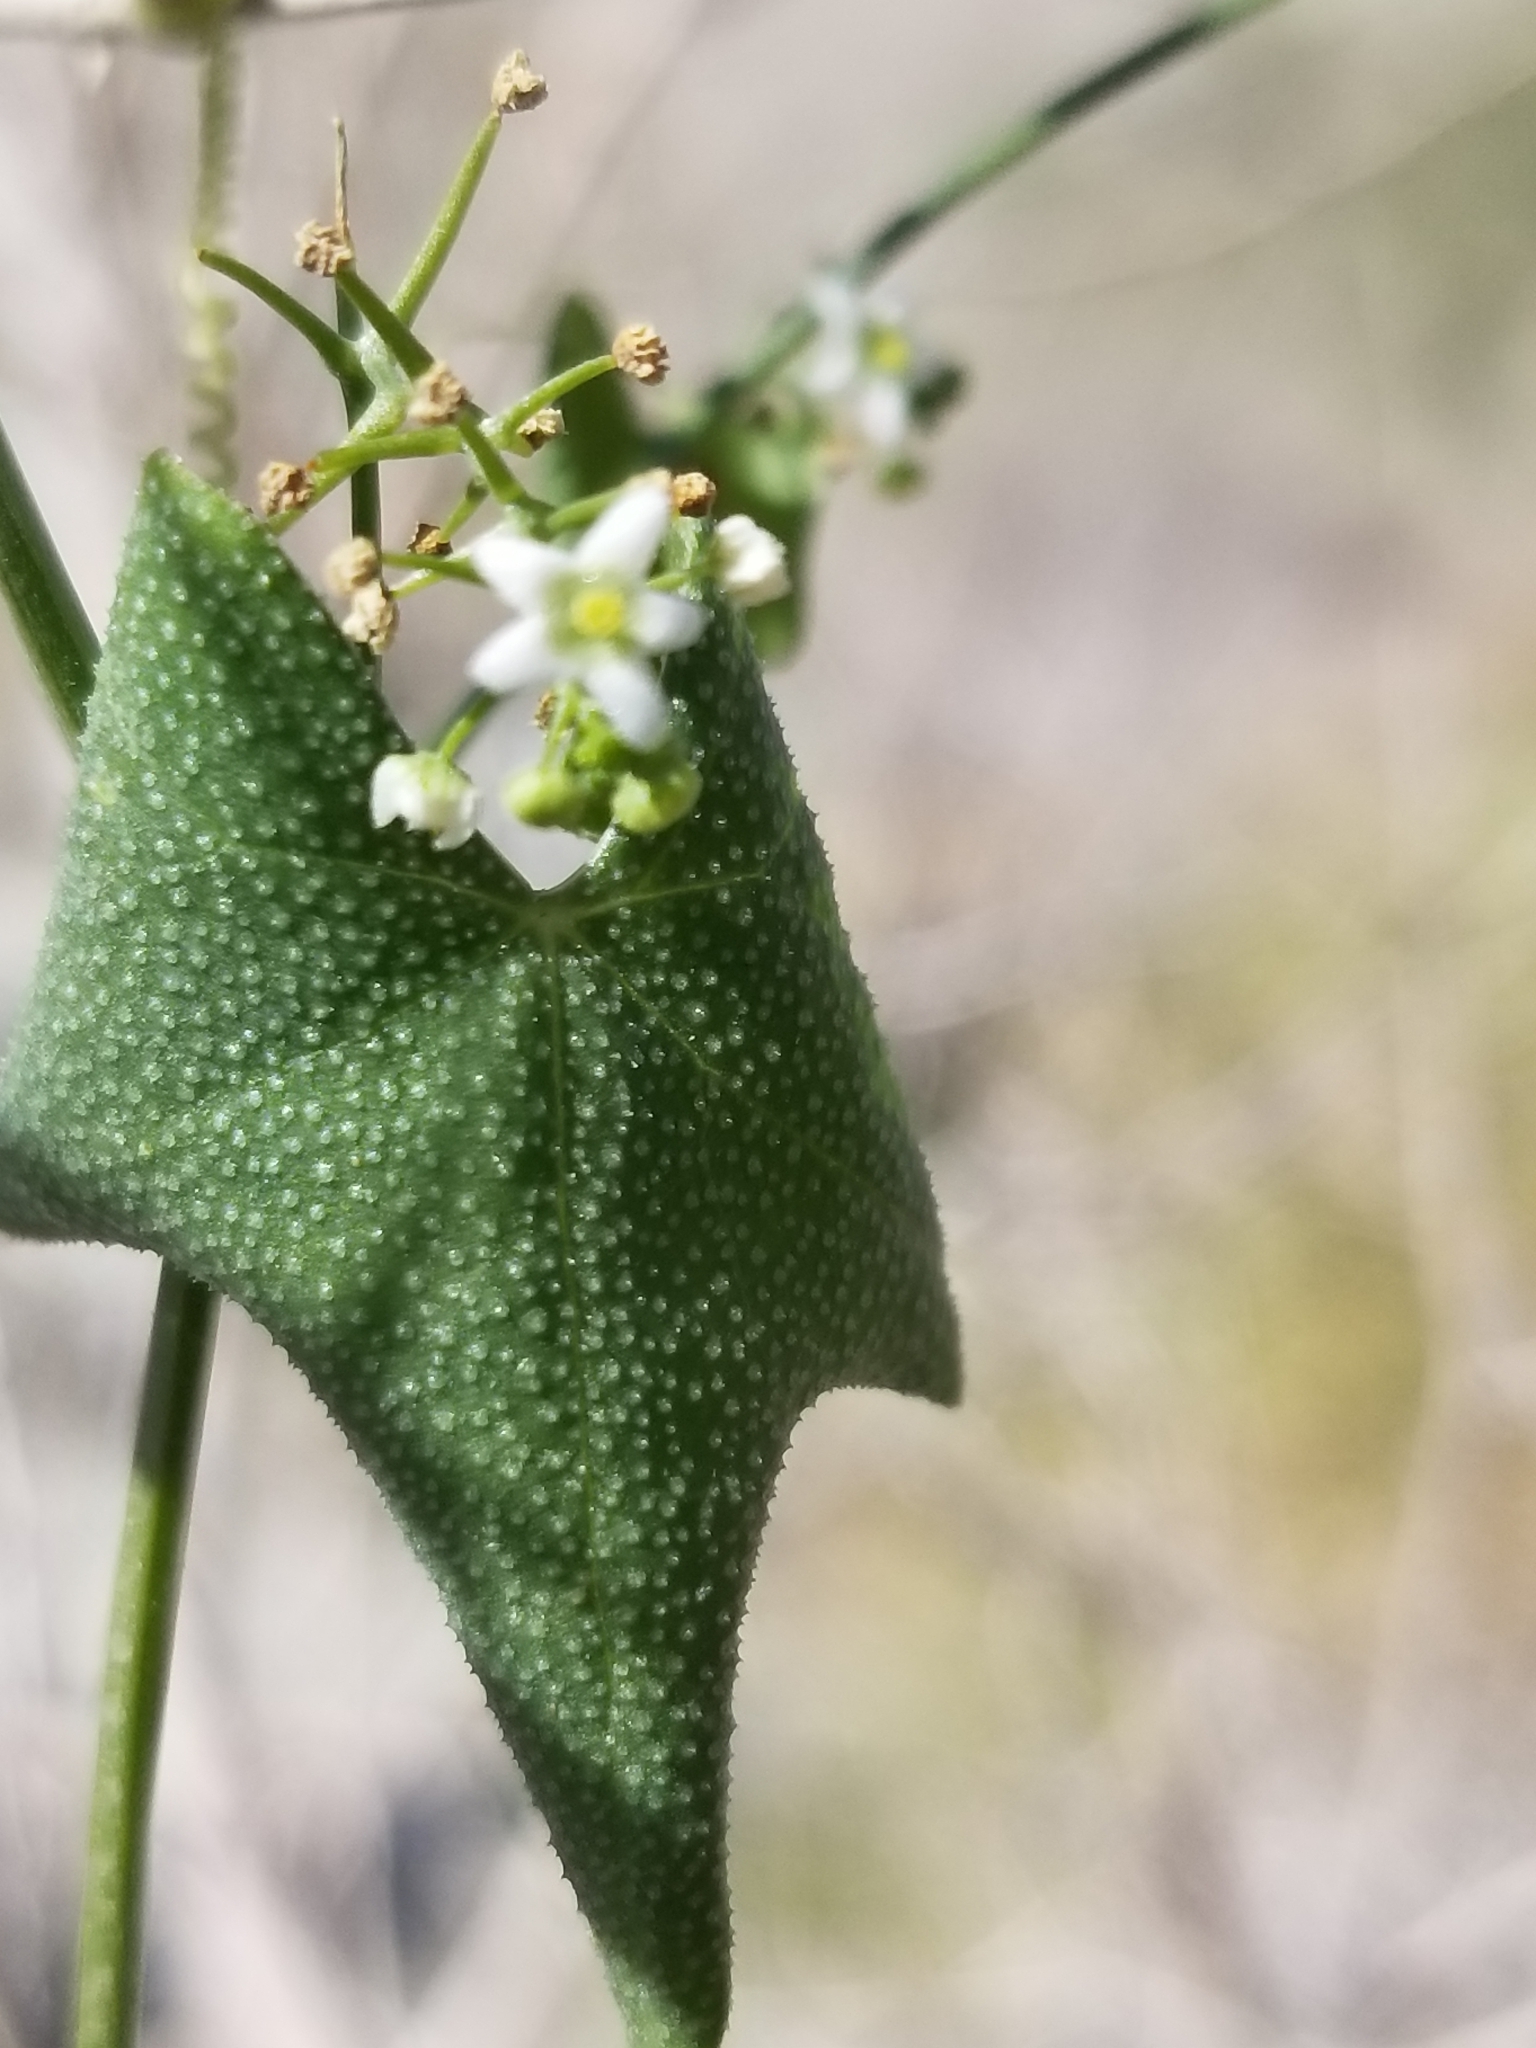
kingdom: Plantae
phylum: Tracheophyta
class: Magnoliopsida
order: Cucurbitales
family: Cucurbitaceae
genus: Echinopepon
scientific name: Echinopepon bigelovii
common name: Desert starvine
